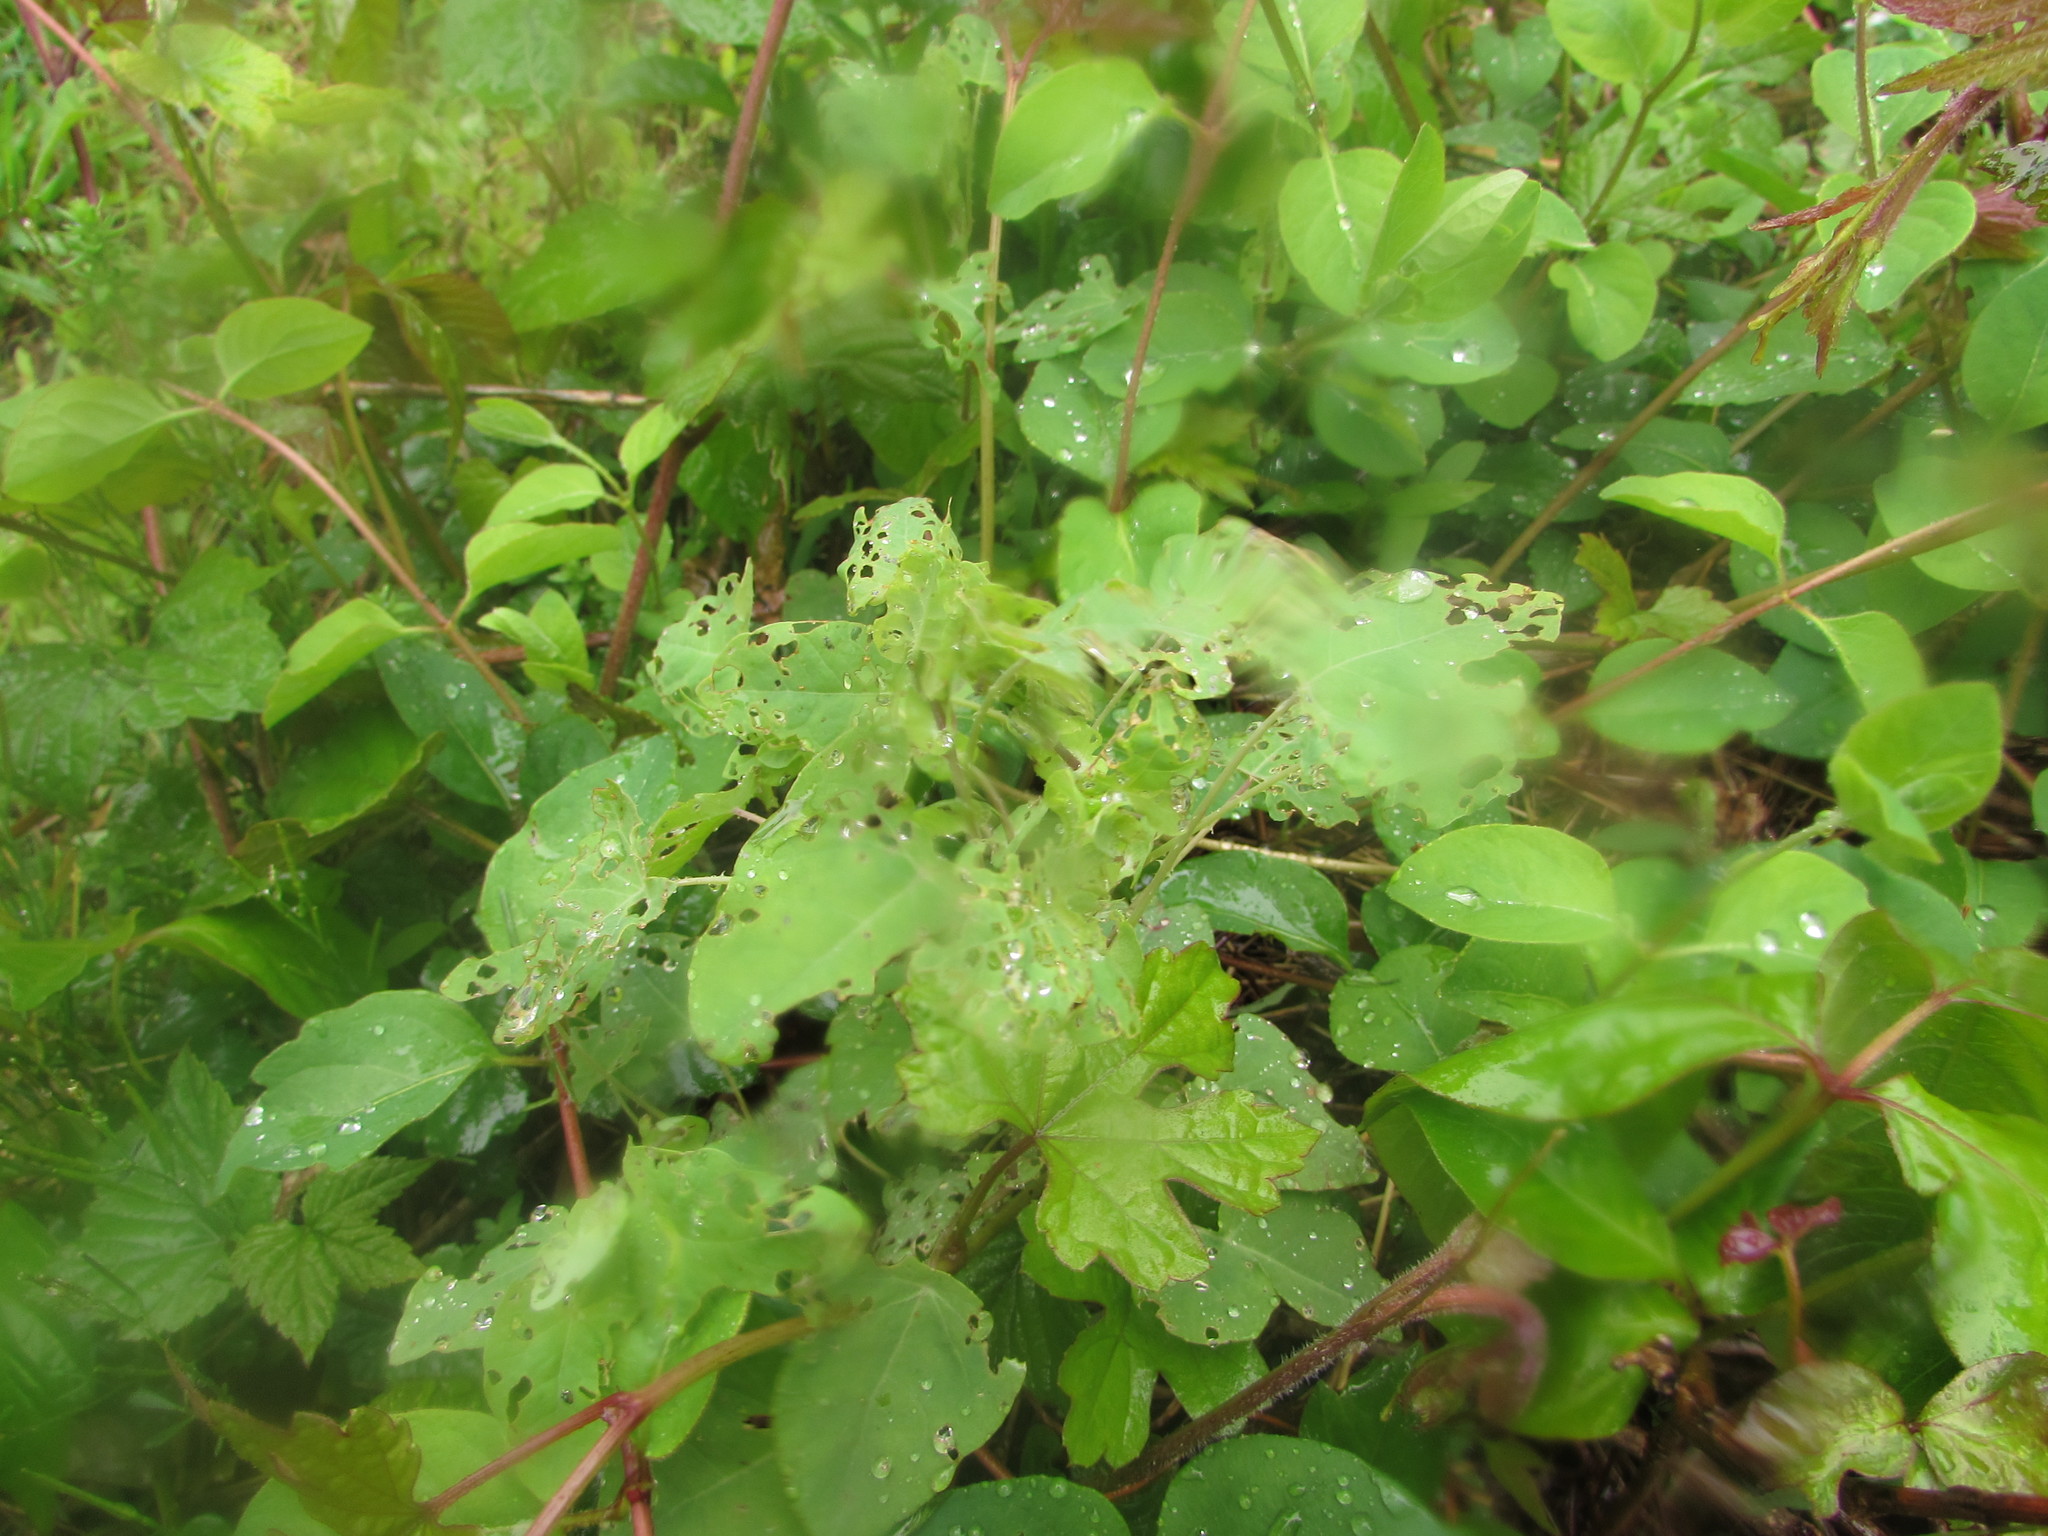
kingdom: Plantae
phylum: Tracheophyta
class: Magnoliopsida
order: Caryophyllales
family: Polygonaceae
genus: Persicaria
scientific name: Persicaria perfoliata
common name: Asiatic tearthumb
